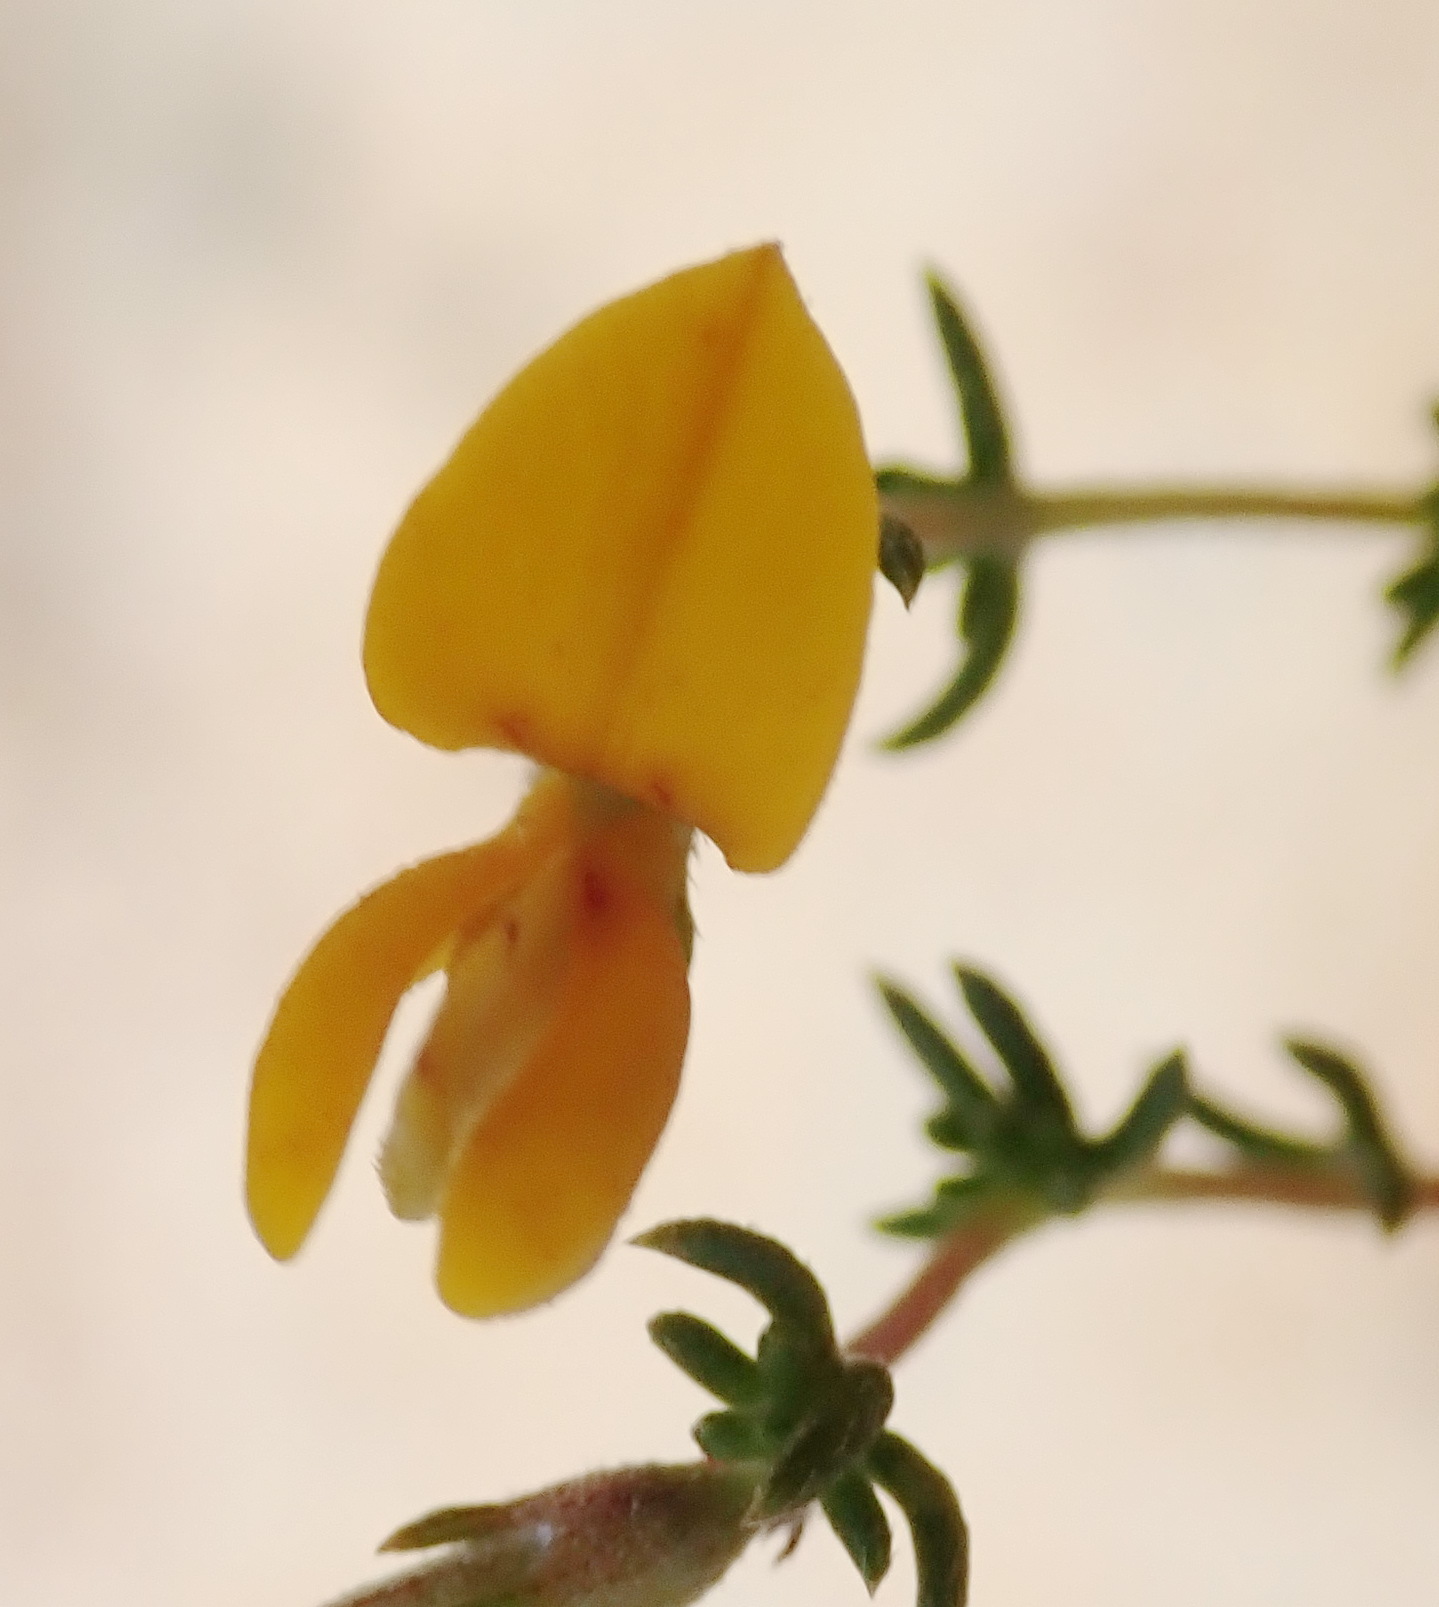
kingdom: Plantae
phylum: Tracheophyta
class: Magnoliopsida
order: Fabales
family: Fabaceae
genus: Aspalathus
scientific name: Aspalathus rubens
